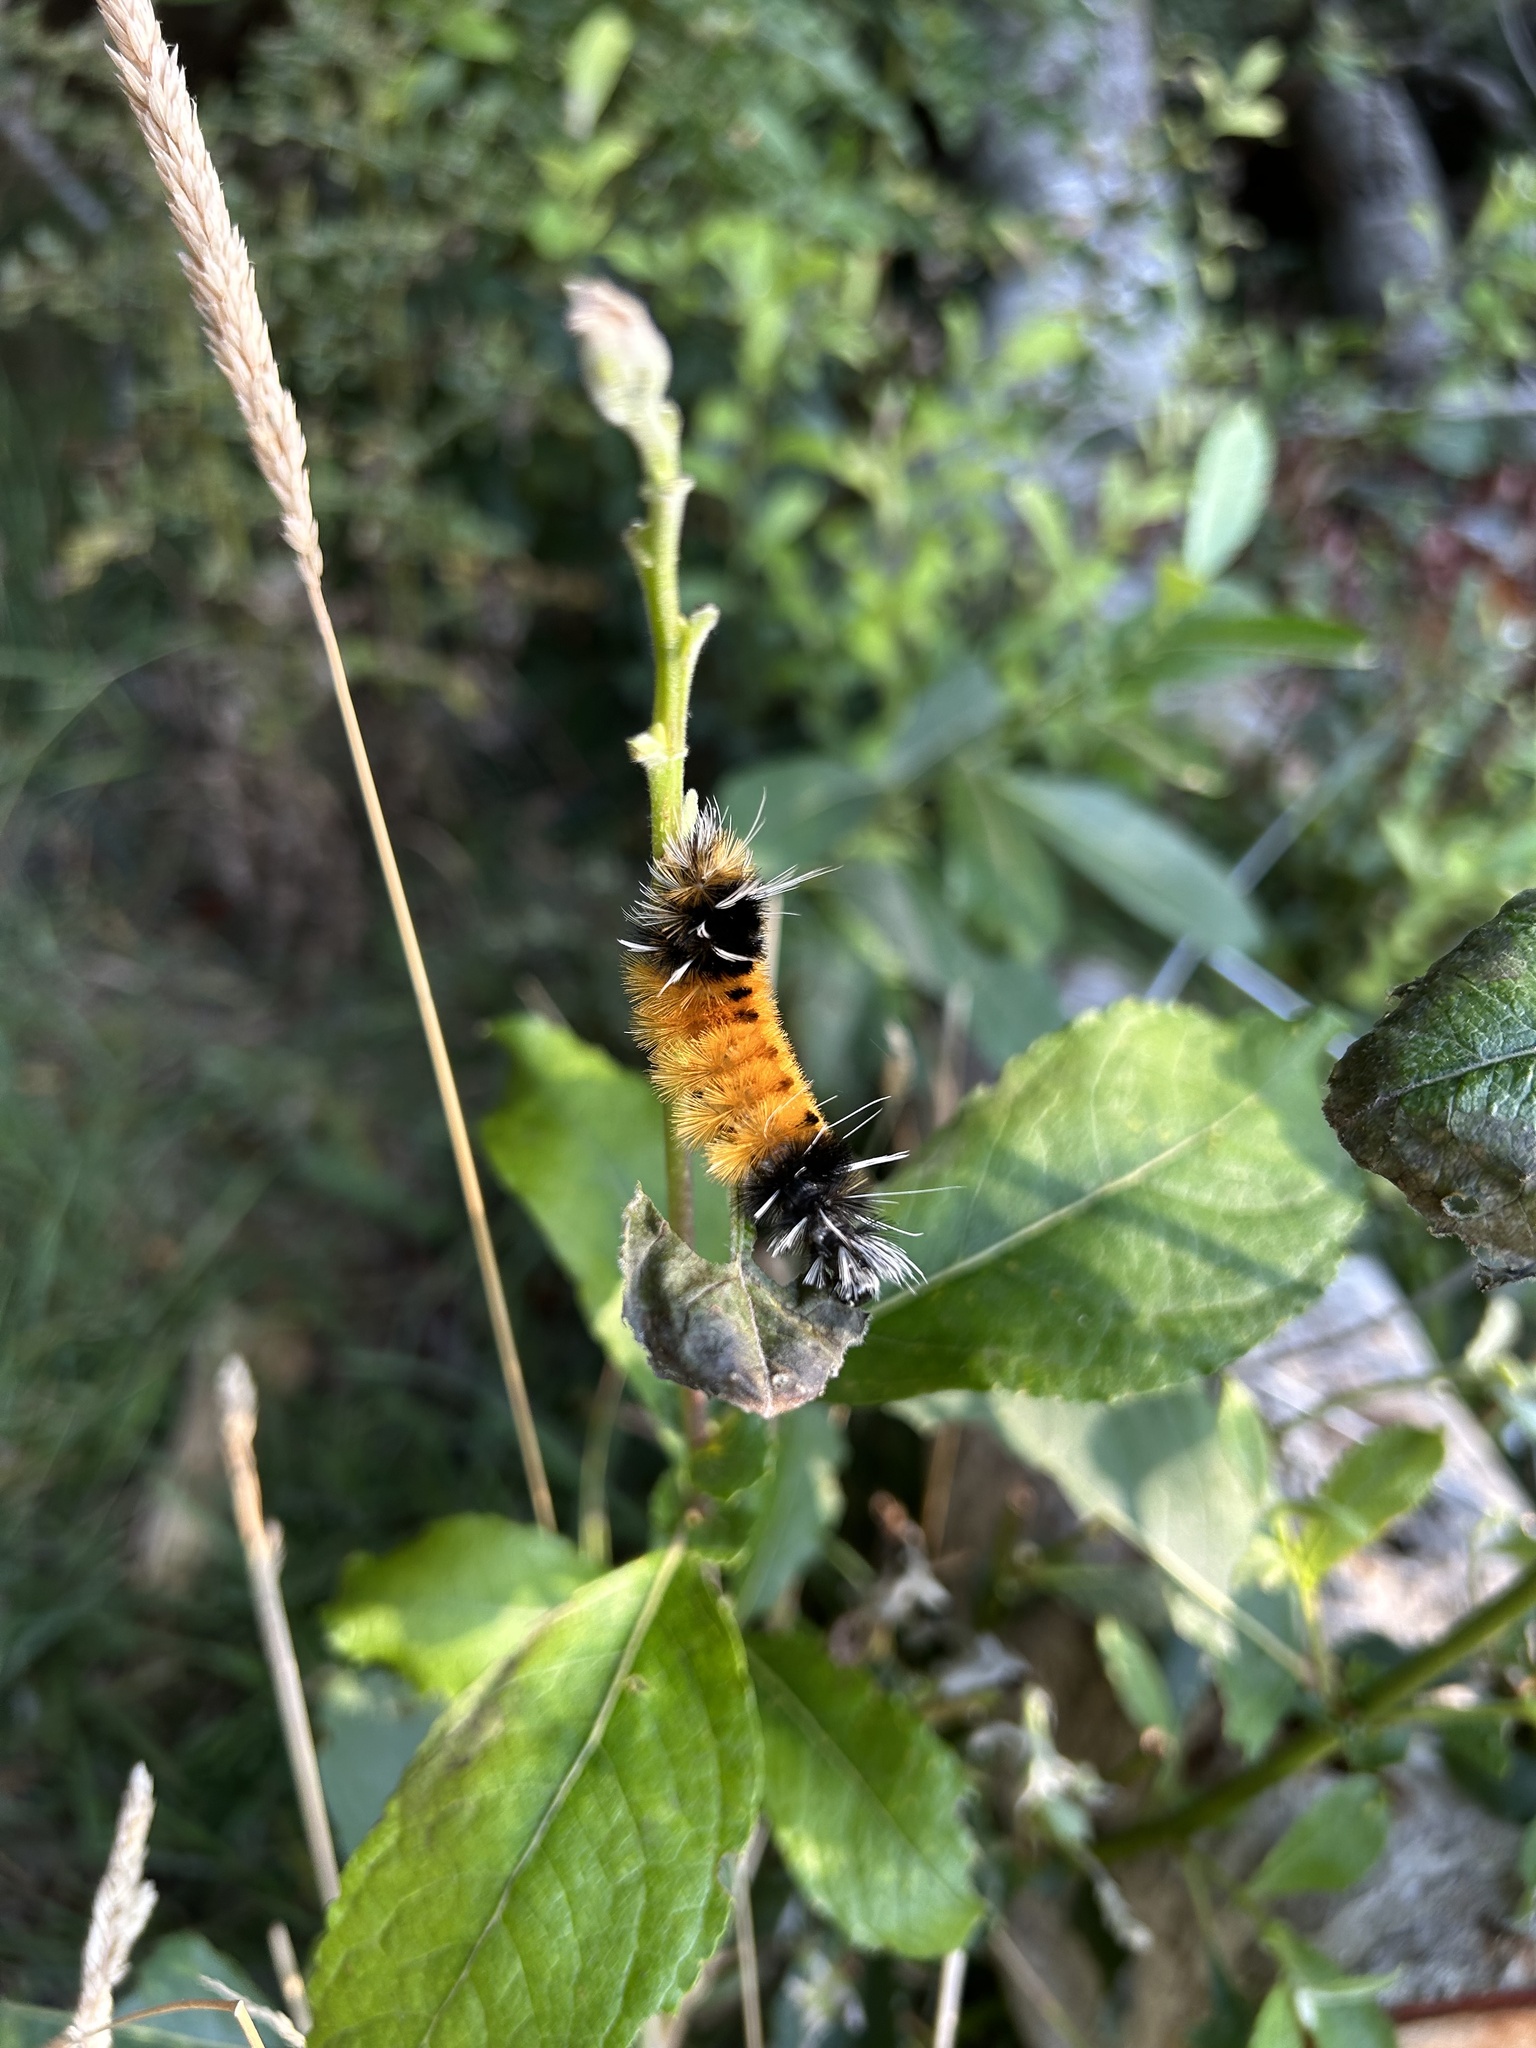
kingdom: Animalia
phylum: Arthropoda
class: Insecta
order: Lepidoptera
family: Erebidae
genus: Lophocampa
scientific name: Lophocampa maculata
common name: Spotted tussock moth
